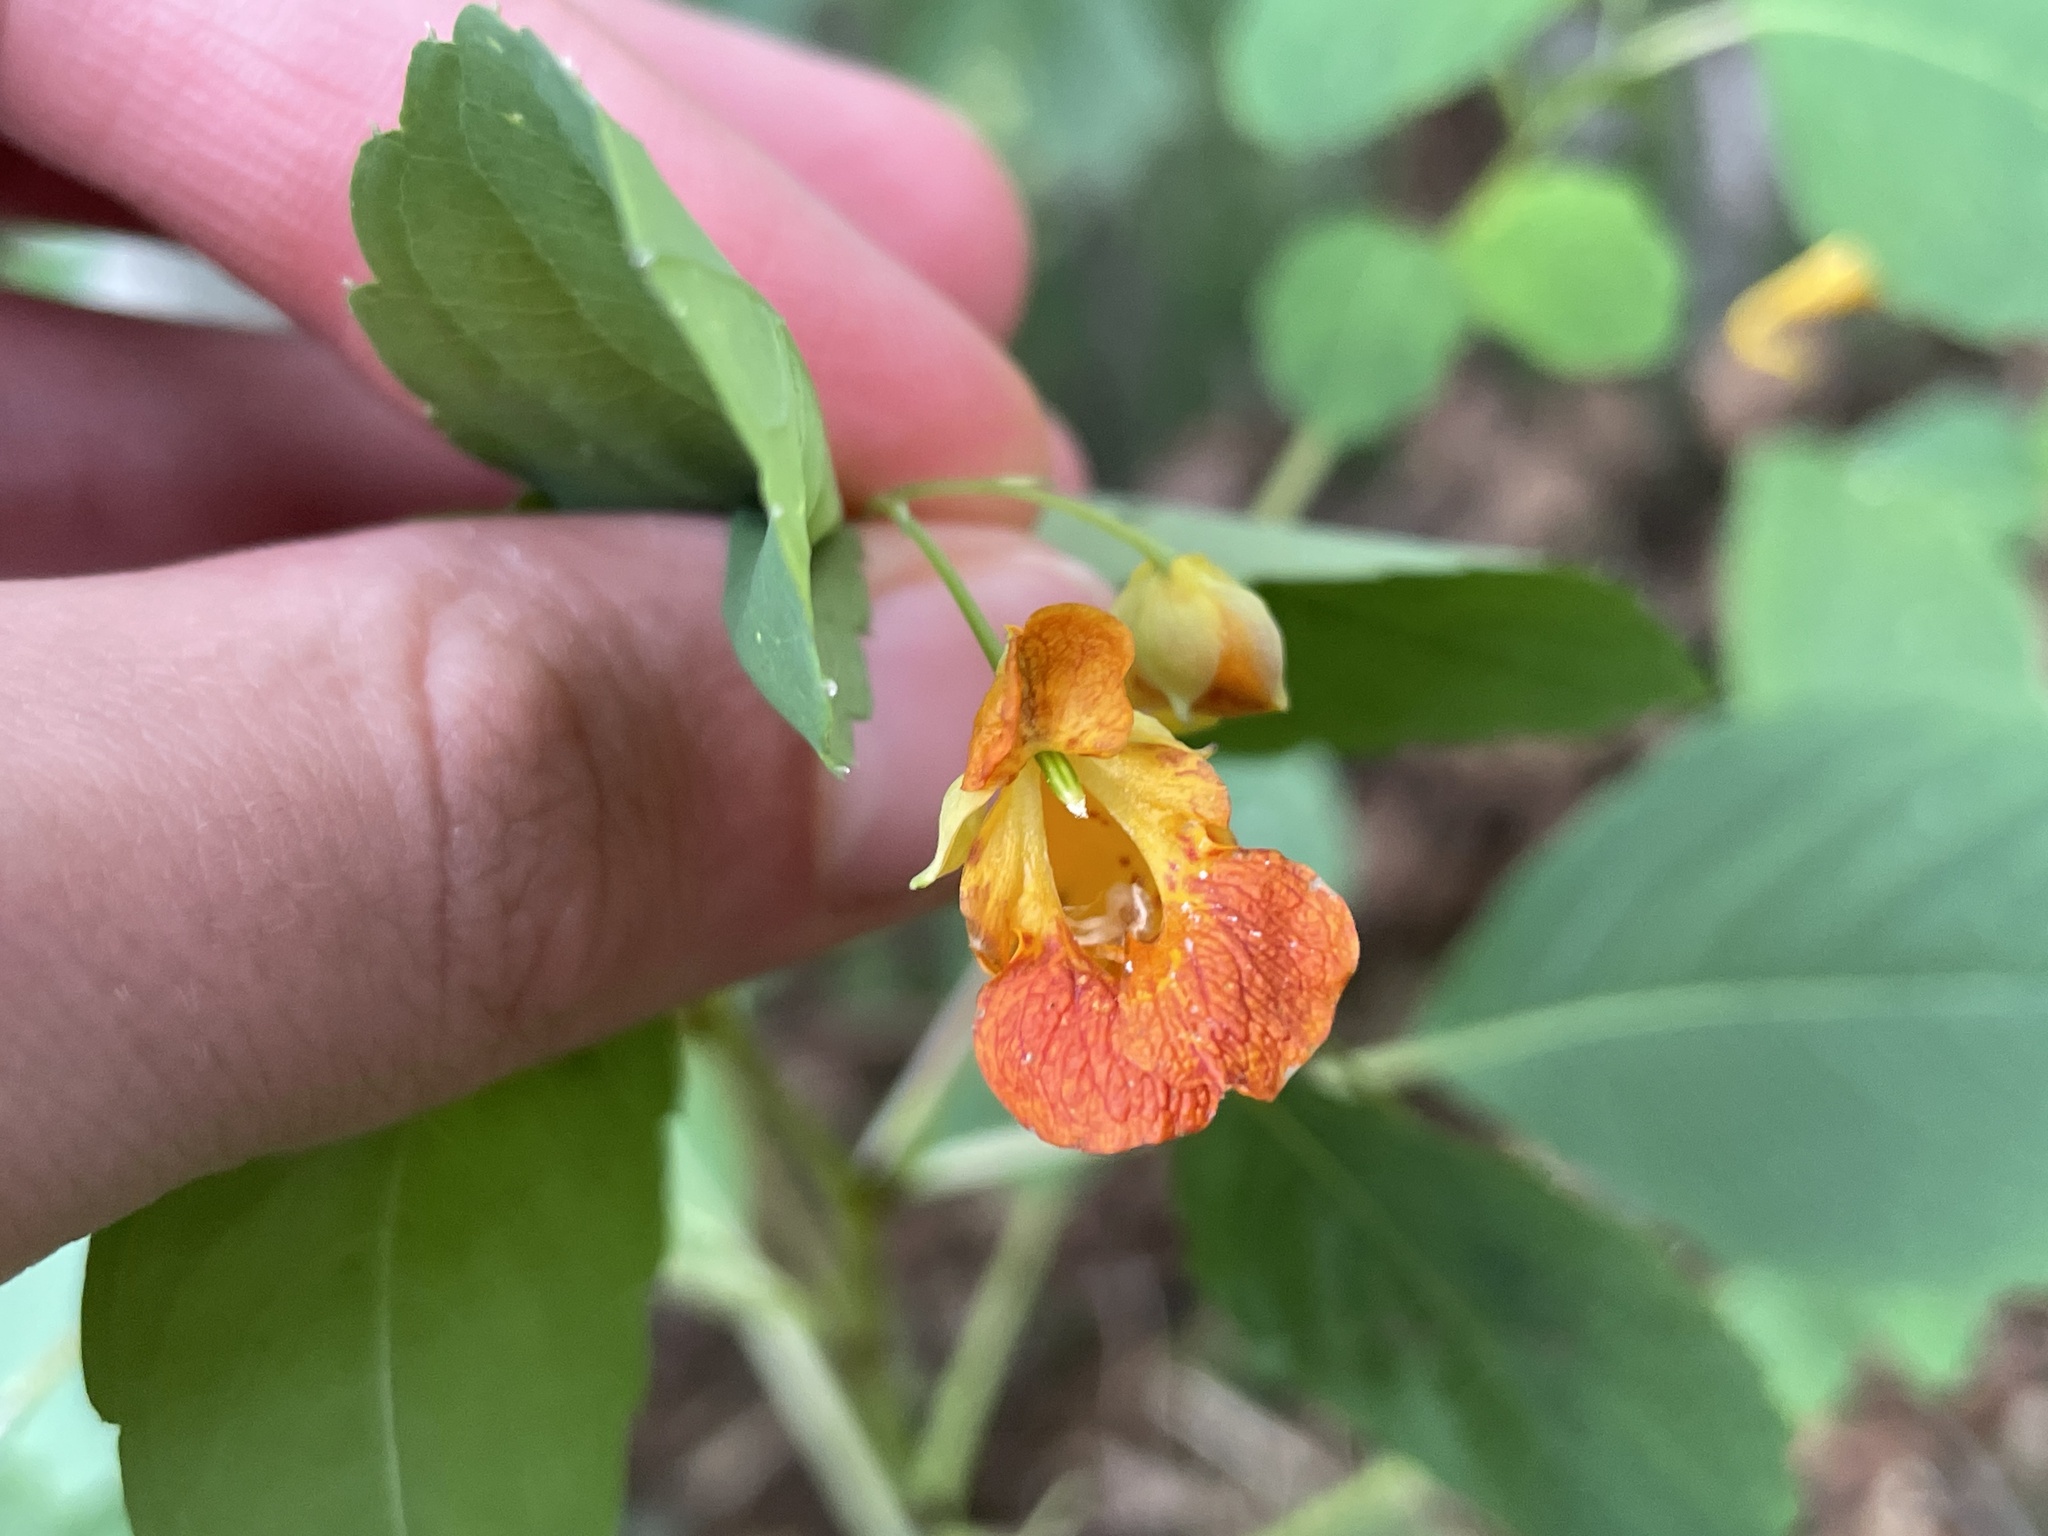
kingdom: Plantae
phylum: Tracheophyta
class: Magnoliopsida
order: Ericales
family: Balsaminaceae
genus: Impatiens
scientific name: Impatiens capensis
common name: Orange balsam
